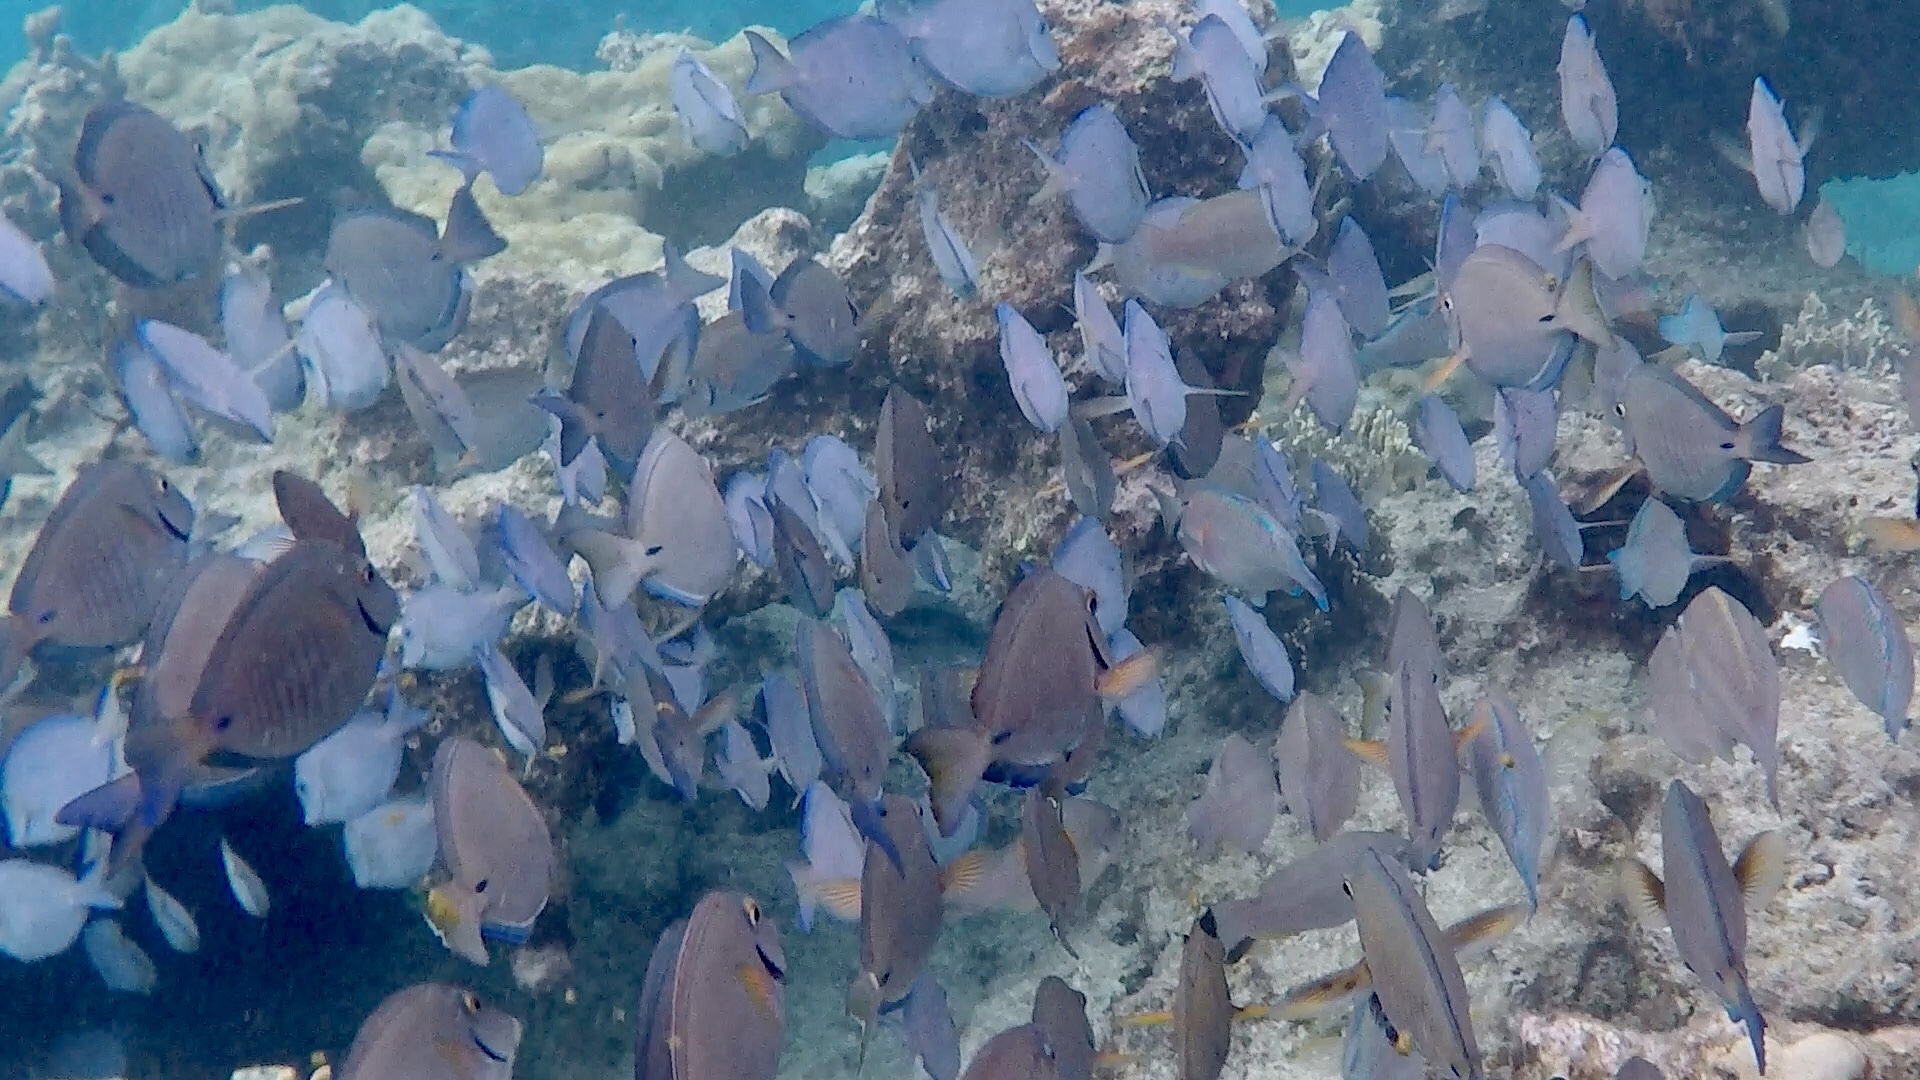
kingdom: Animalia
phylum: Chordata
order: Perciformes
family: Acanthuridae
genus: Acanthurus
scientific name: Acanthurus bahianus
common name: Ocean surgeon
